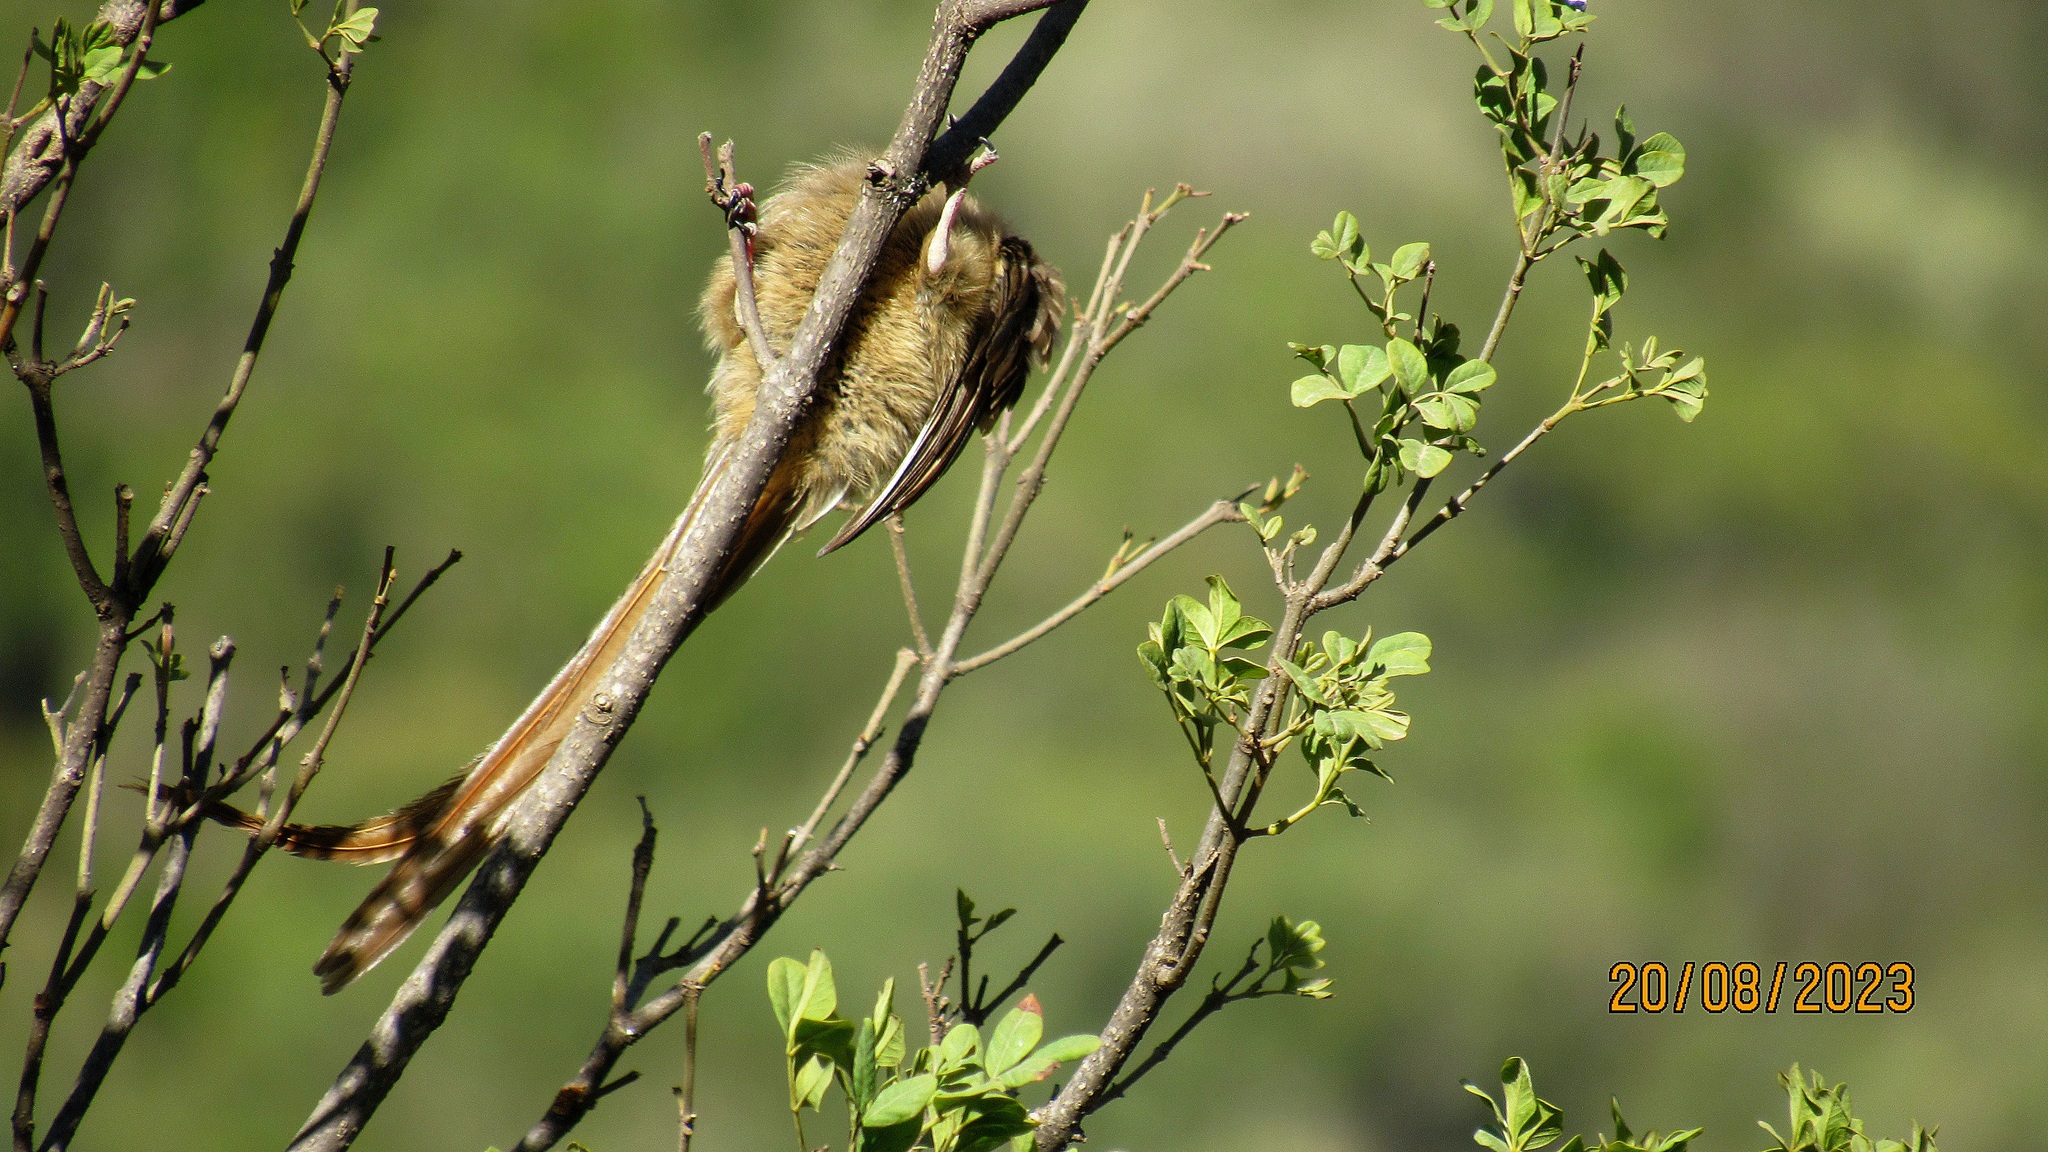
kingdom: Animalia
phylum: Chordata
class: Aves
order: Coliiformes
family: Coliidae
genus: Colius
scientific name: Colius striatus
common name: Speckled mousebird
